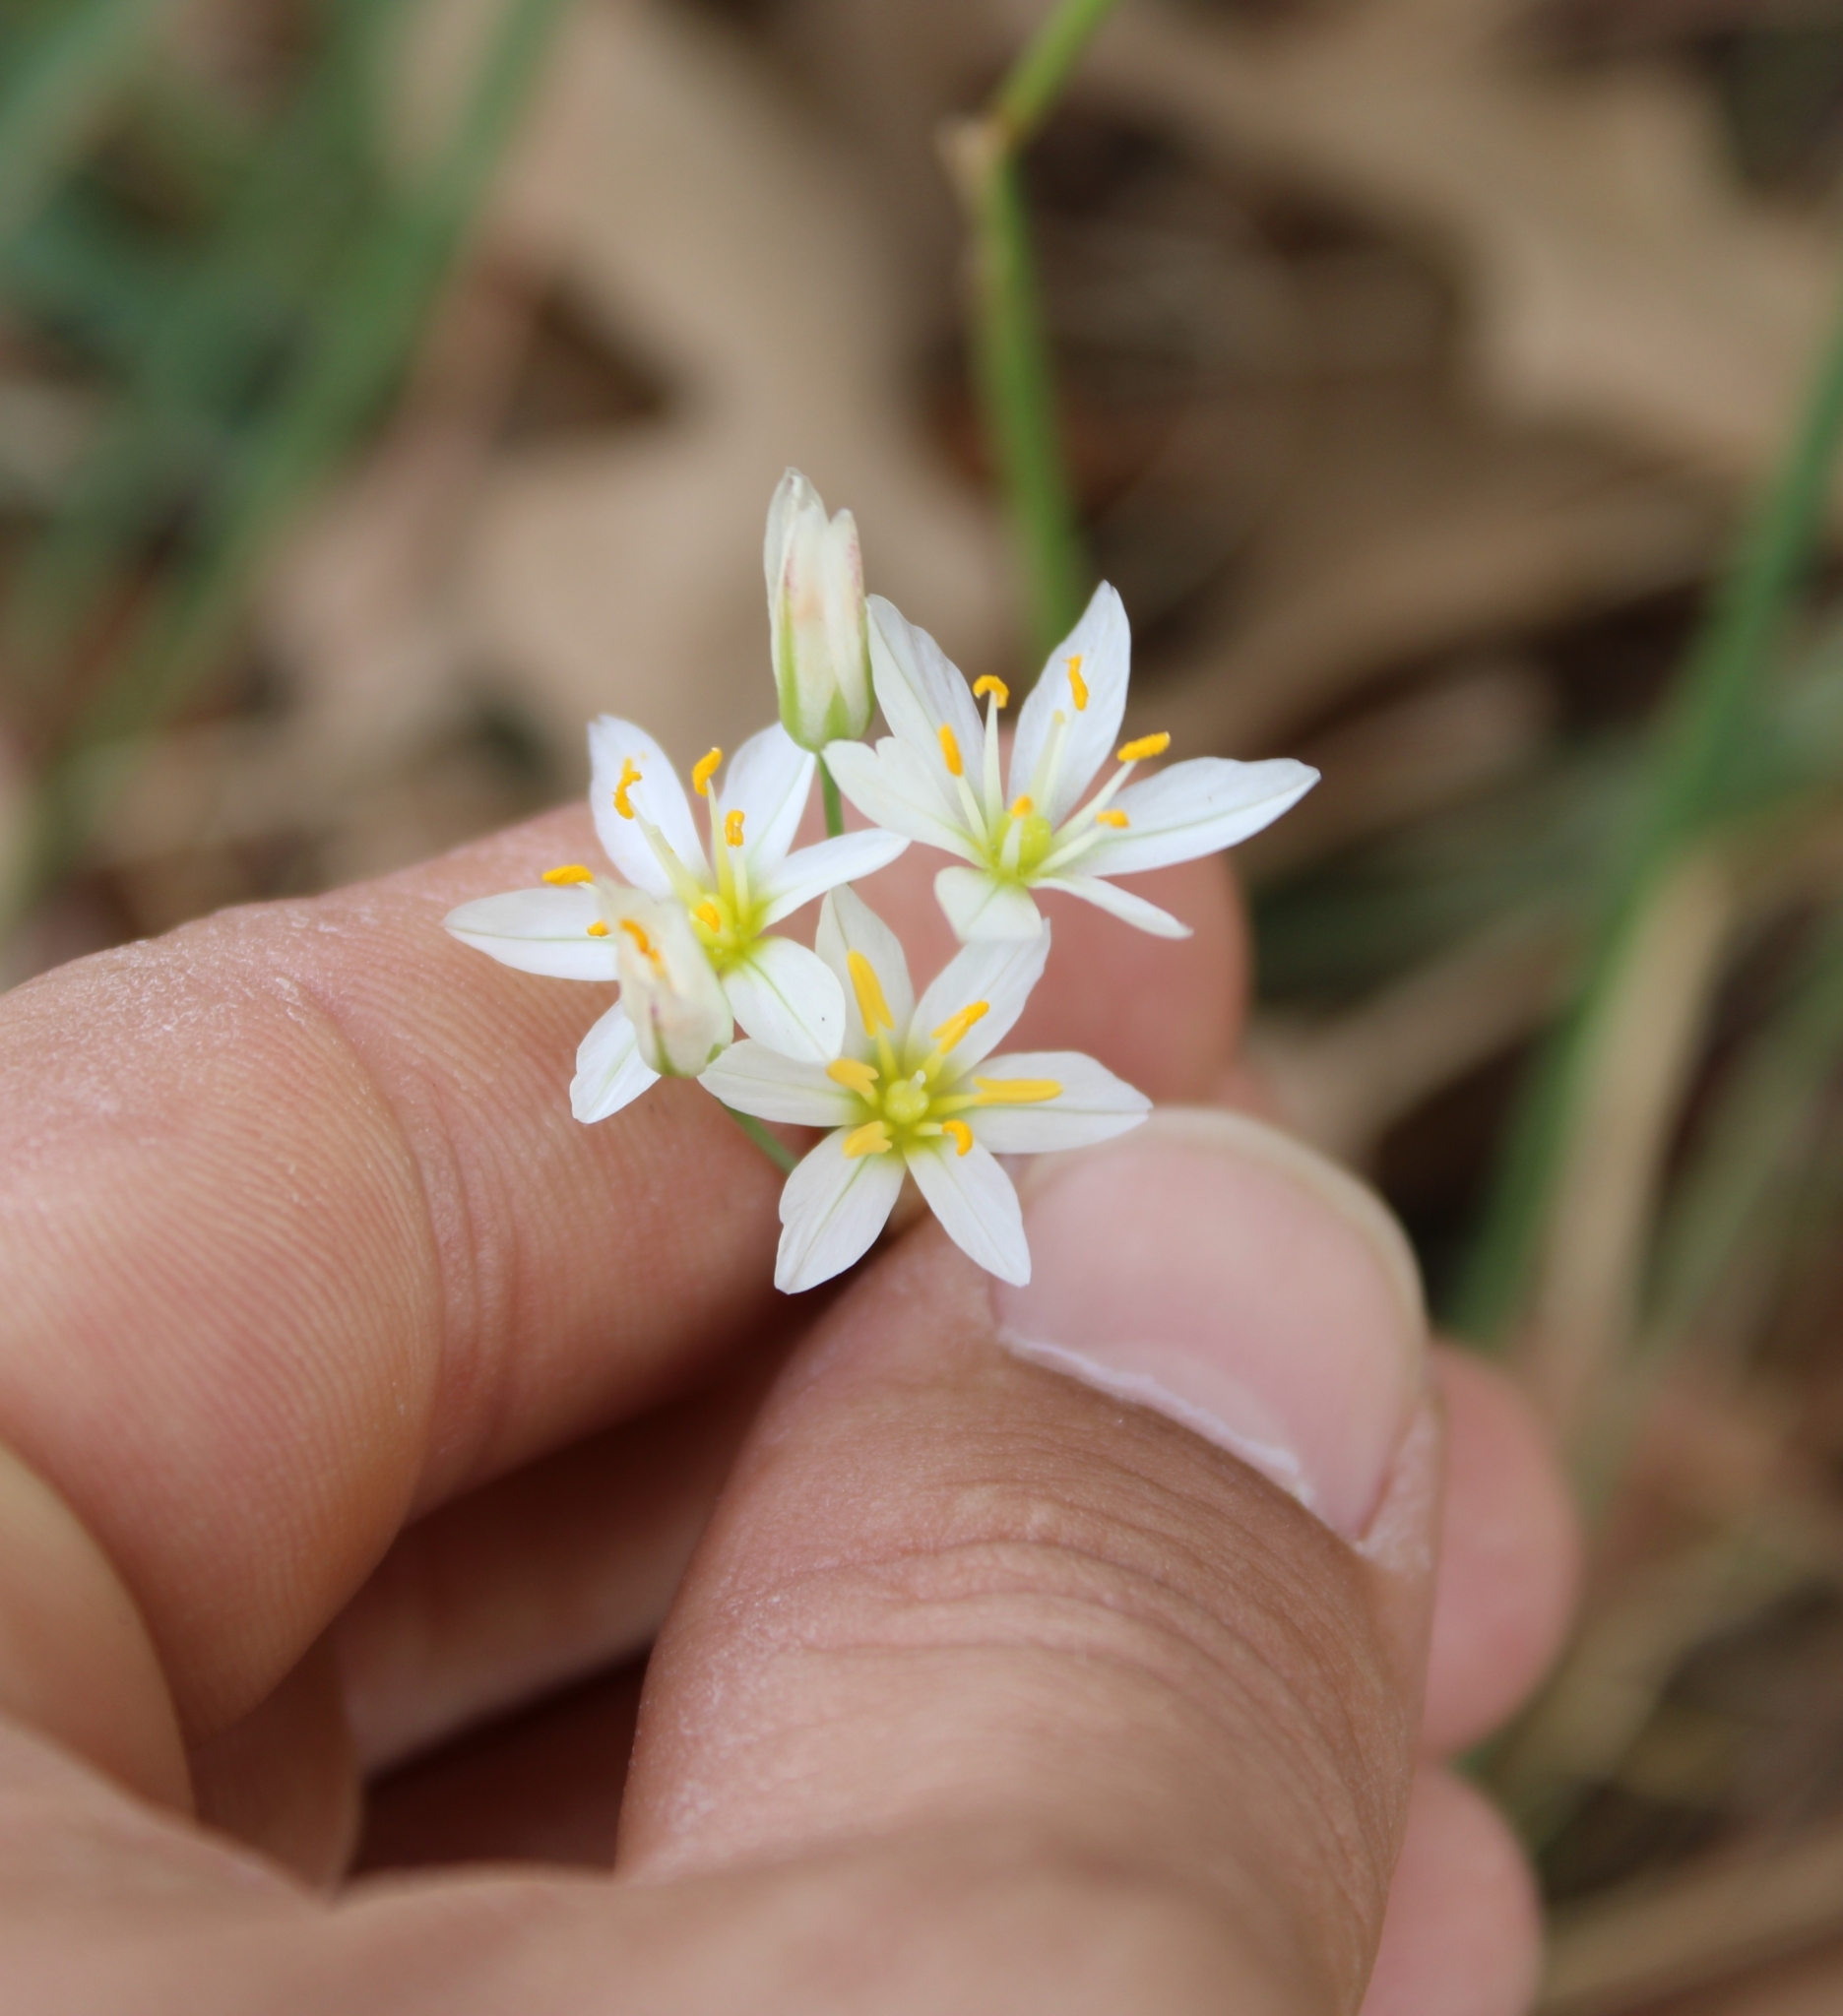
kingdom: Plantae
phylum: Tracheophyta
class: Liliopsida
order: Asparagales
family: Amaryllidaceae
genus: Nothoscordum
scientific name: Nothoscordum bivalve
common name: Crow-poison
